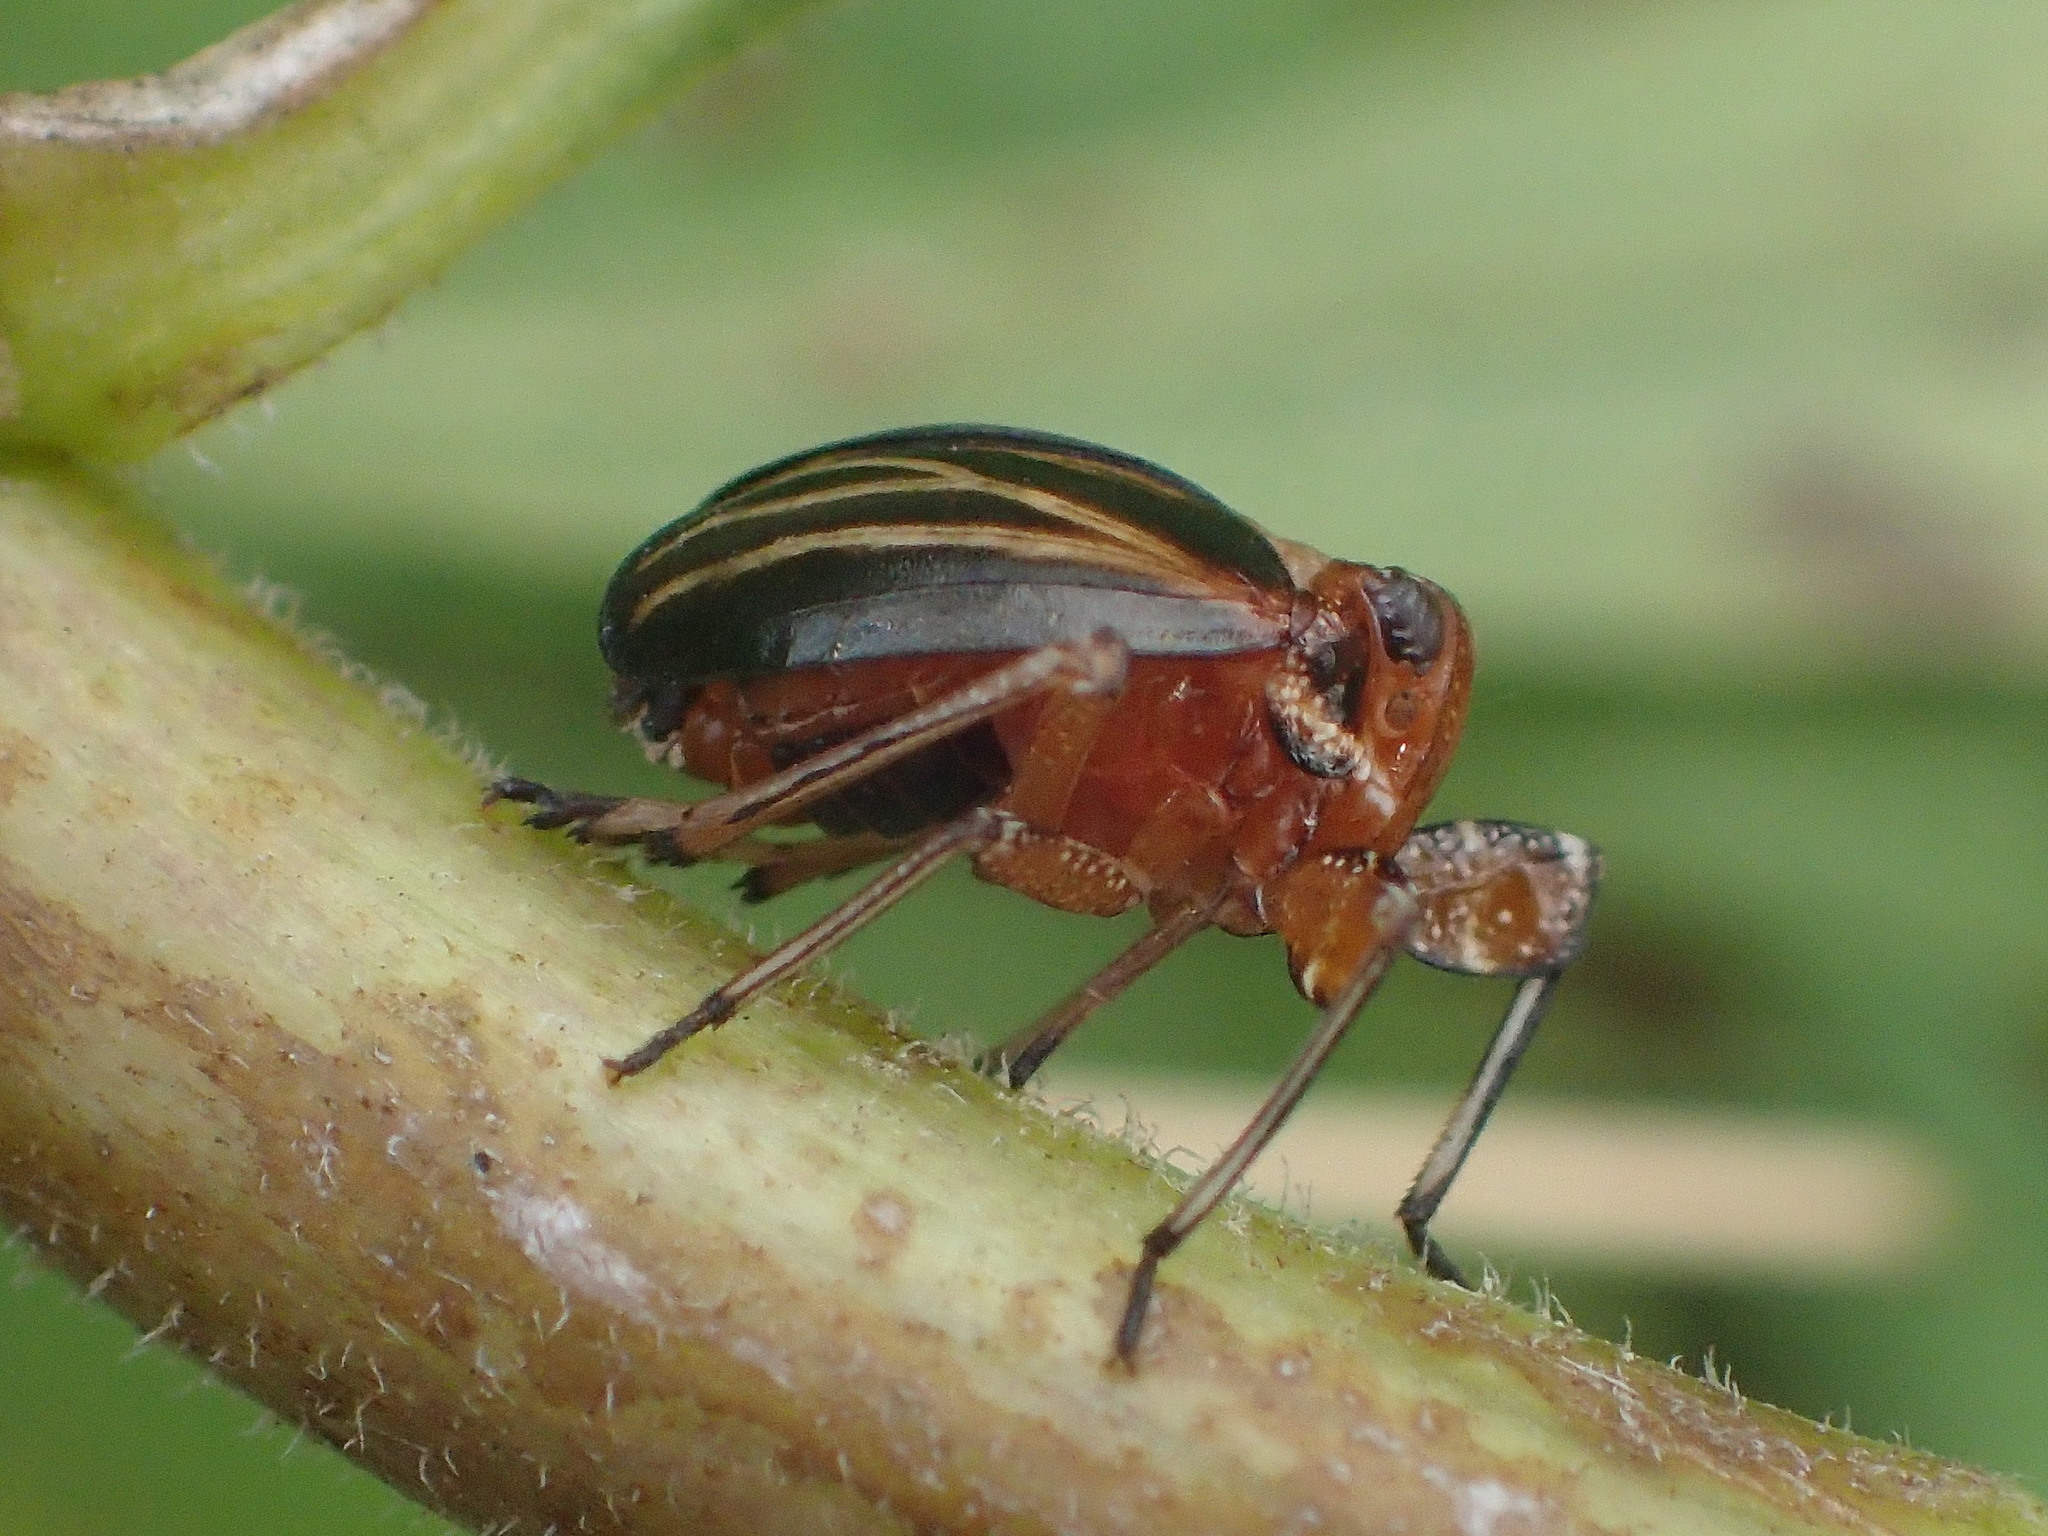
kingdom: Animalia
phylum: Arthropoda
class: Insecta
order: Hemiptera
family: Achilidae
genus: Isodaemon
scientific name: Isodaemon orontes
